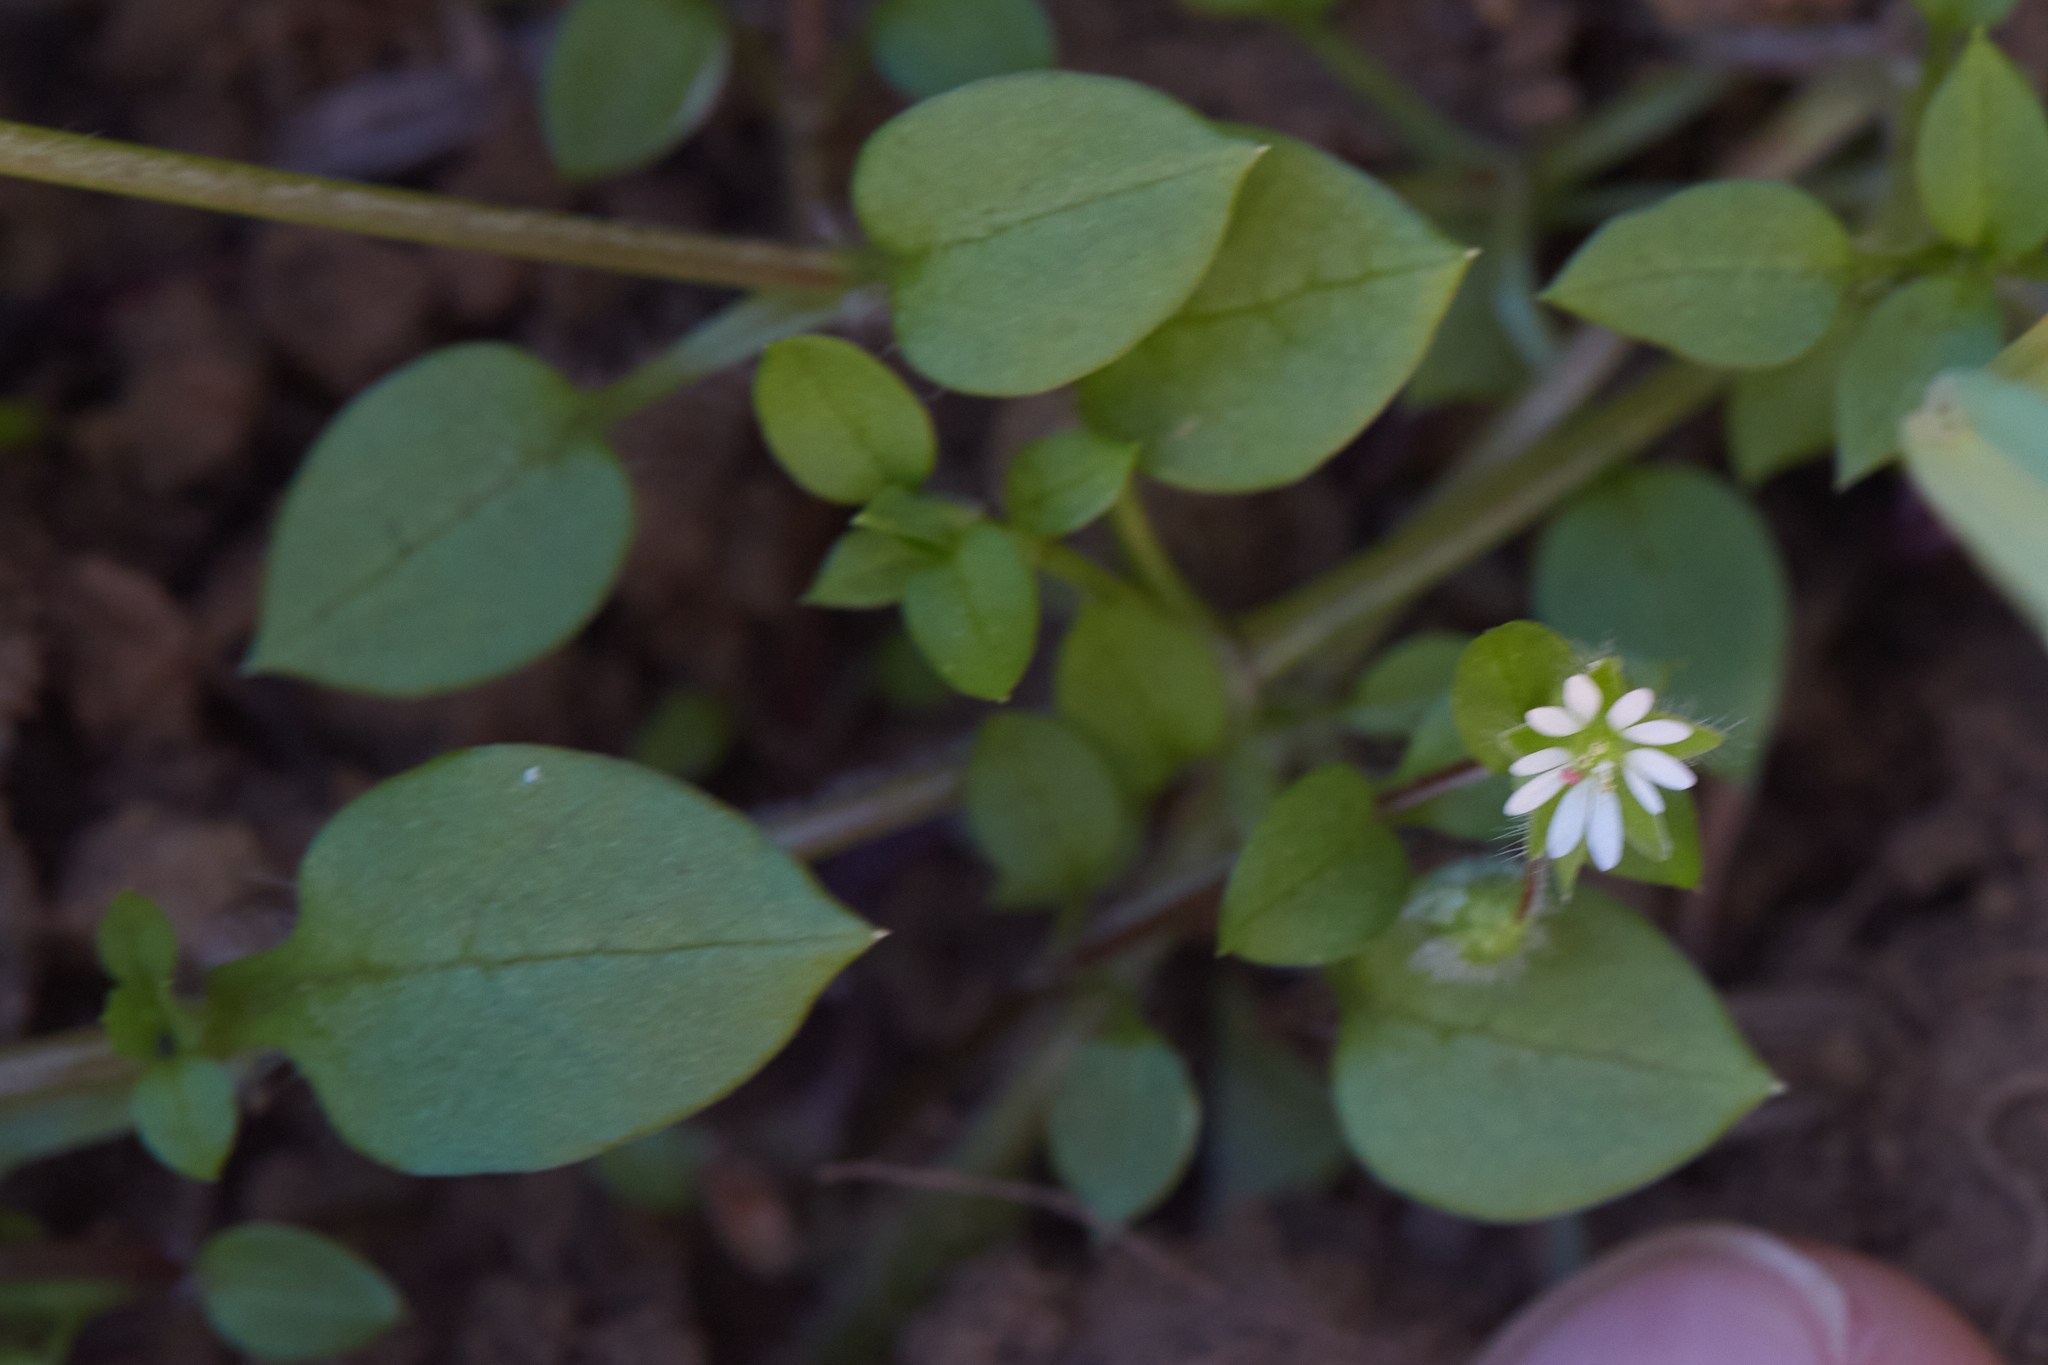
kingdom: Plantae
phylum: Tracheophyta
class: Magnoliopsida
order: Caryophyllales
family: Caryophyllaceae
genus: Stellaria
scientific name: Stellaria media
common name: Common chickweed
